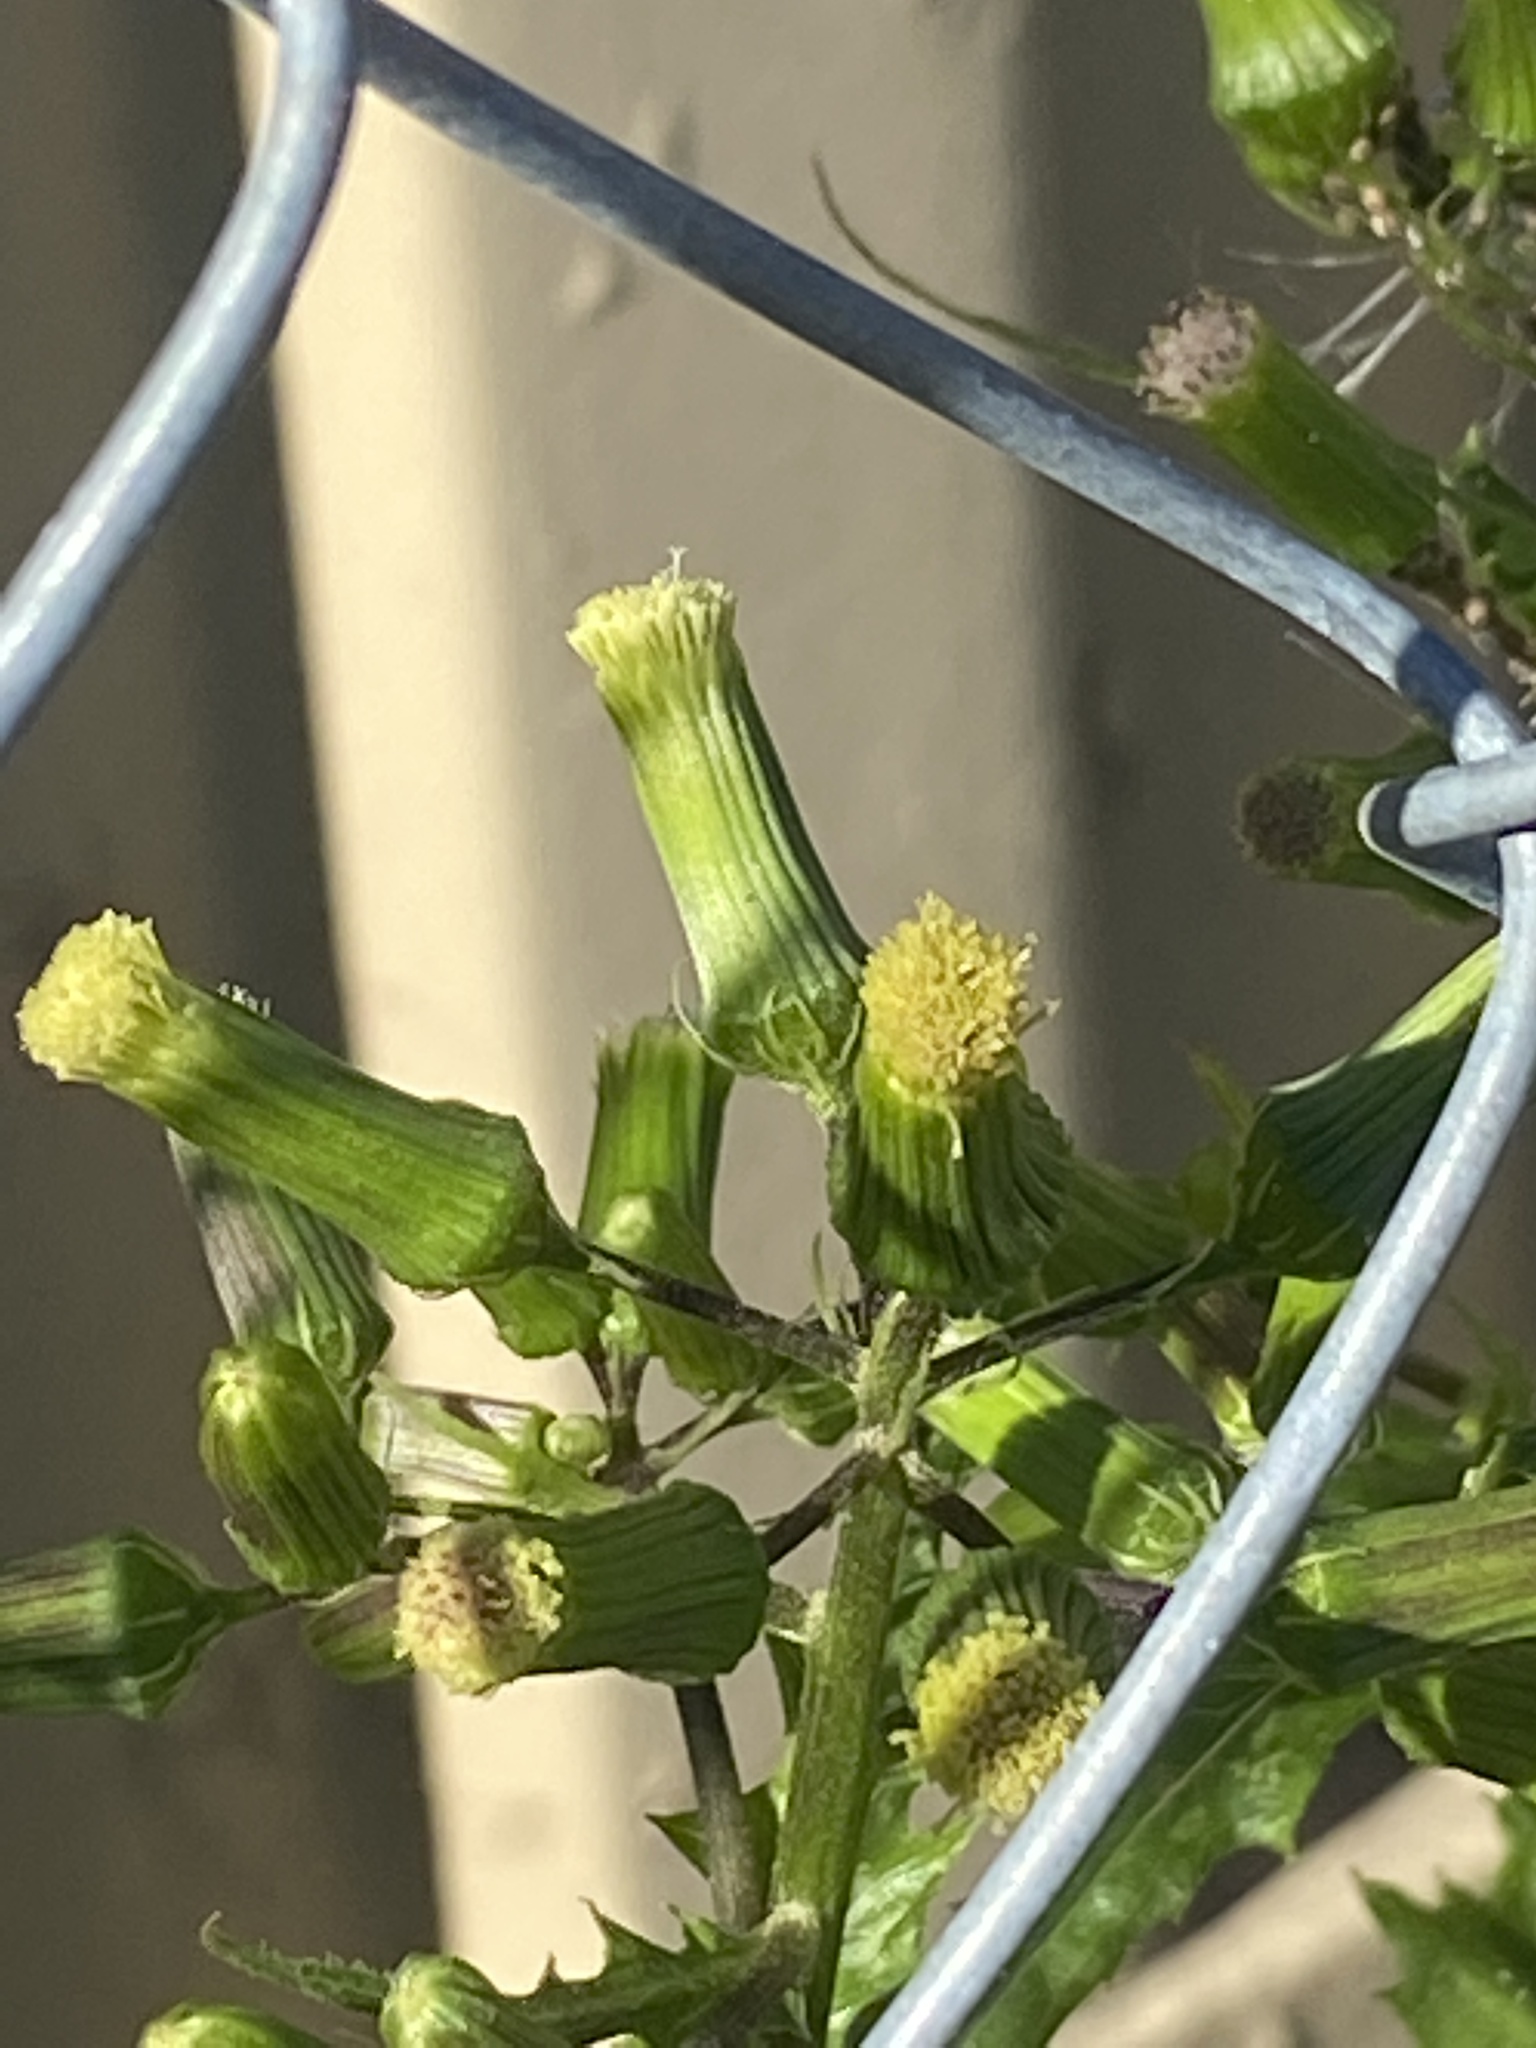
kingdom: Plantae
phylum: Tracheophyta
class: Magnoliopsida
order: Asterales
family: Asteraceae
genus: Erechtites
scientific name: Erechtites hieraciifolius
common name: American burnweed
